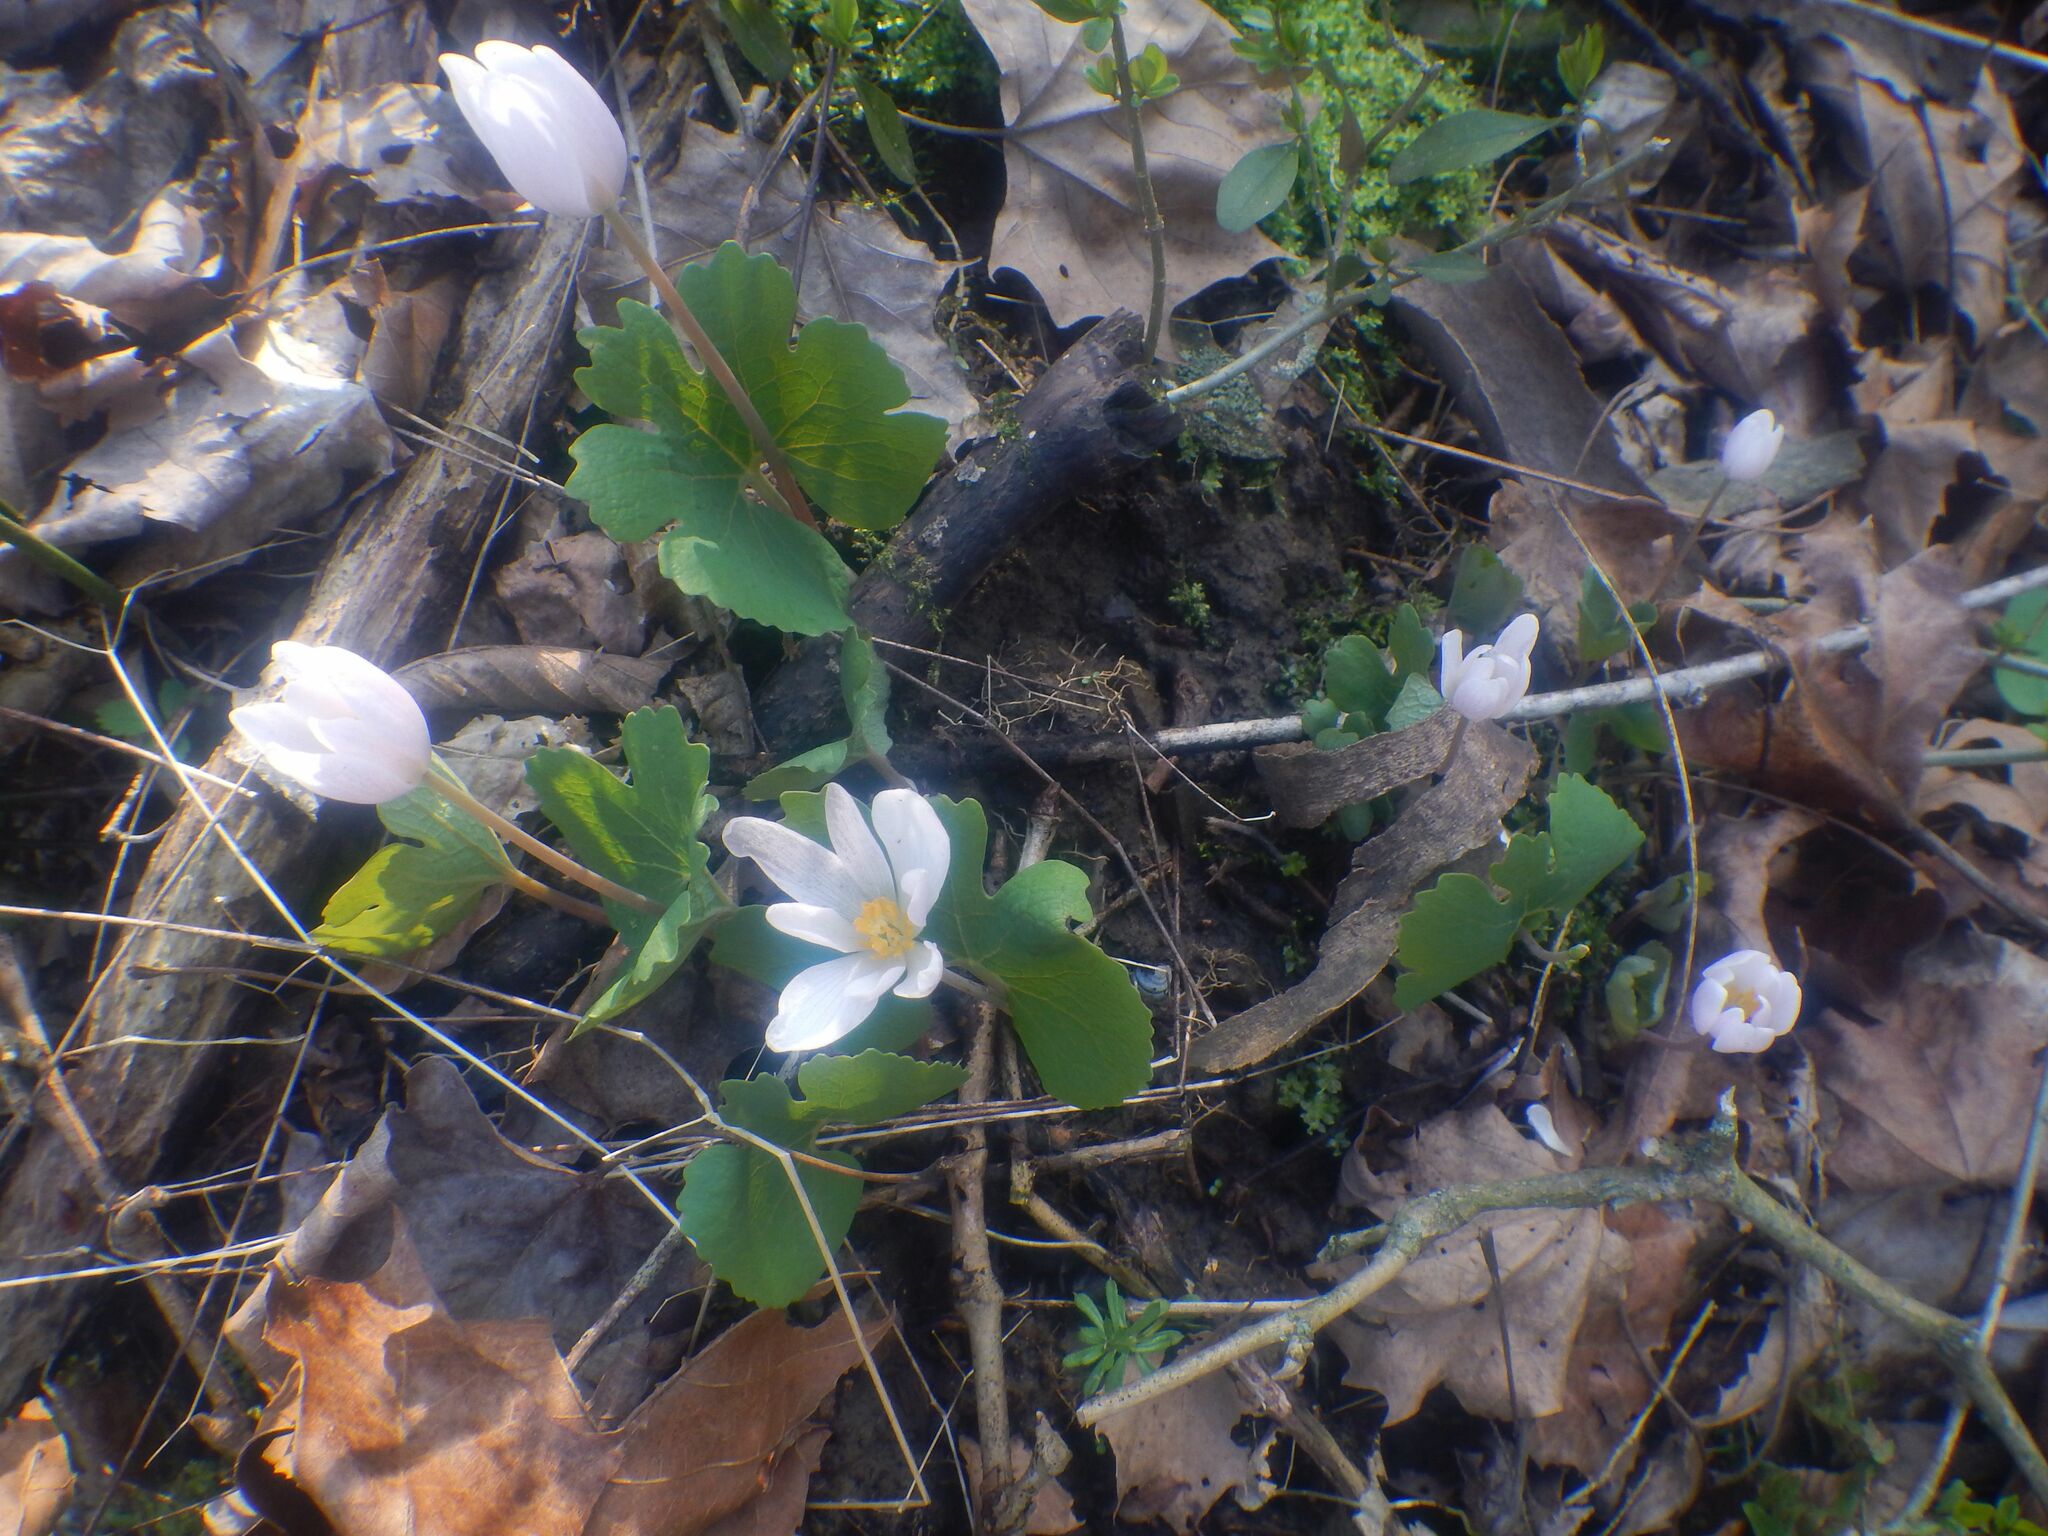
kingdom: Plantae
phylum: Tracheophyta
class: Magnoliopsida
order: Ranunculales
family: Papaveraceae
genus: Sanguinaria
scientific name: Sanguinaria canadensis
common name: Bloodroot
